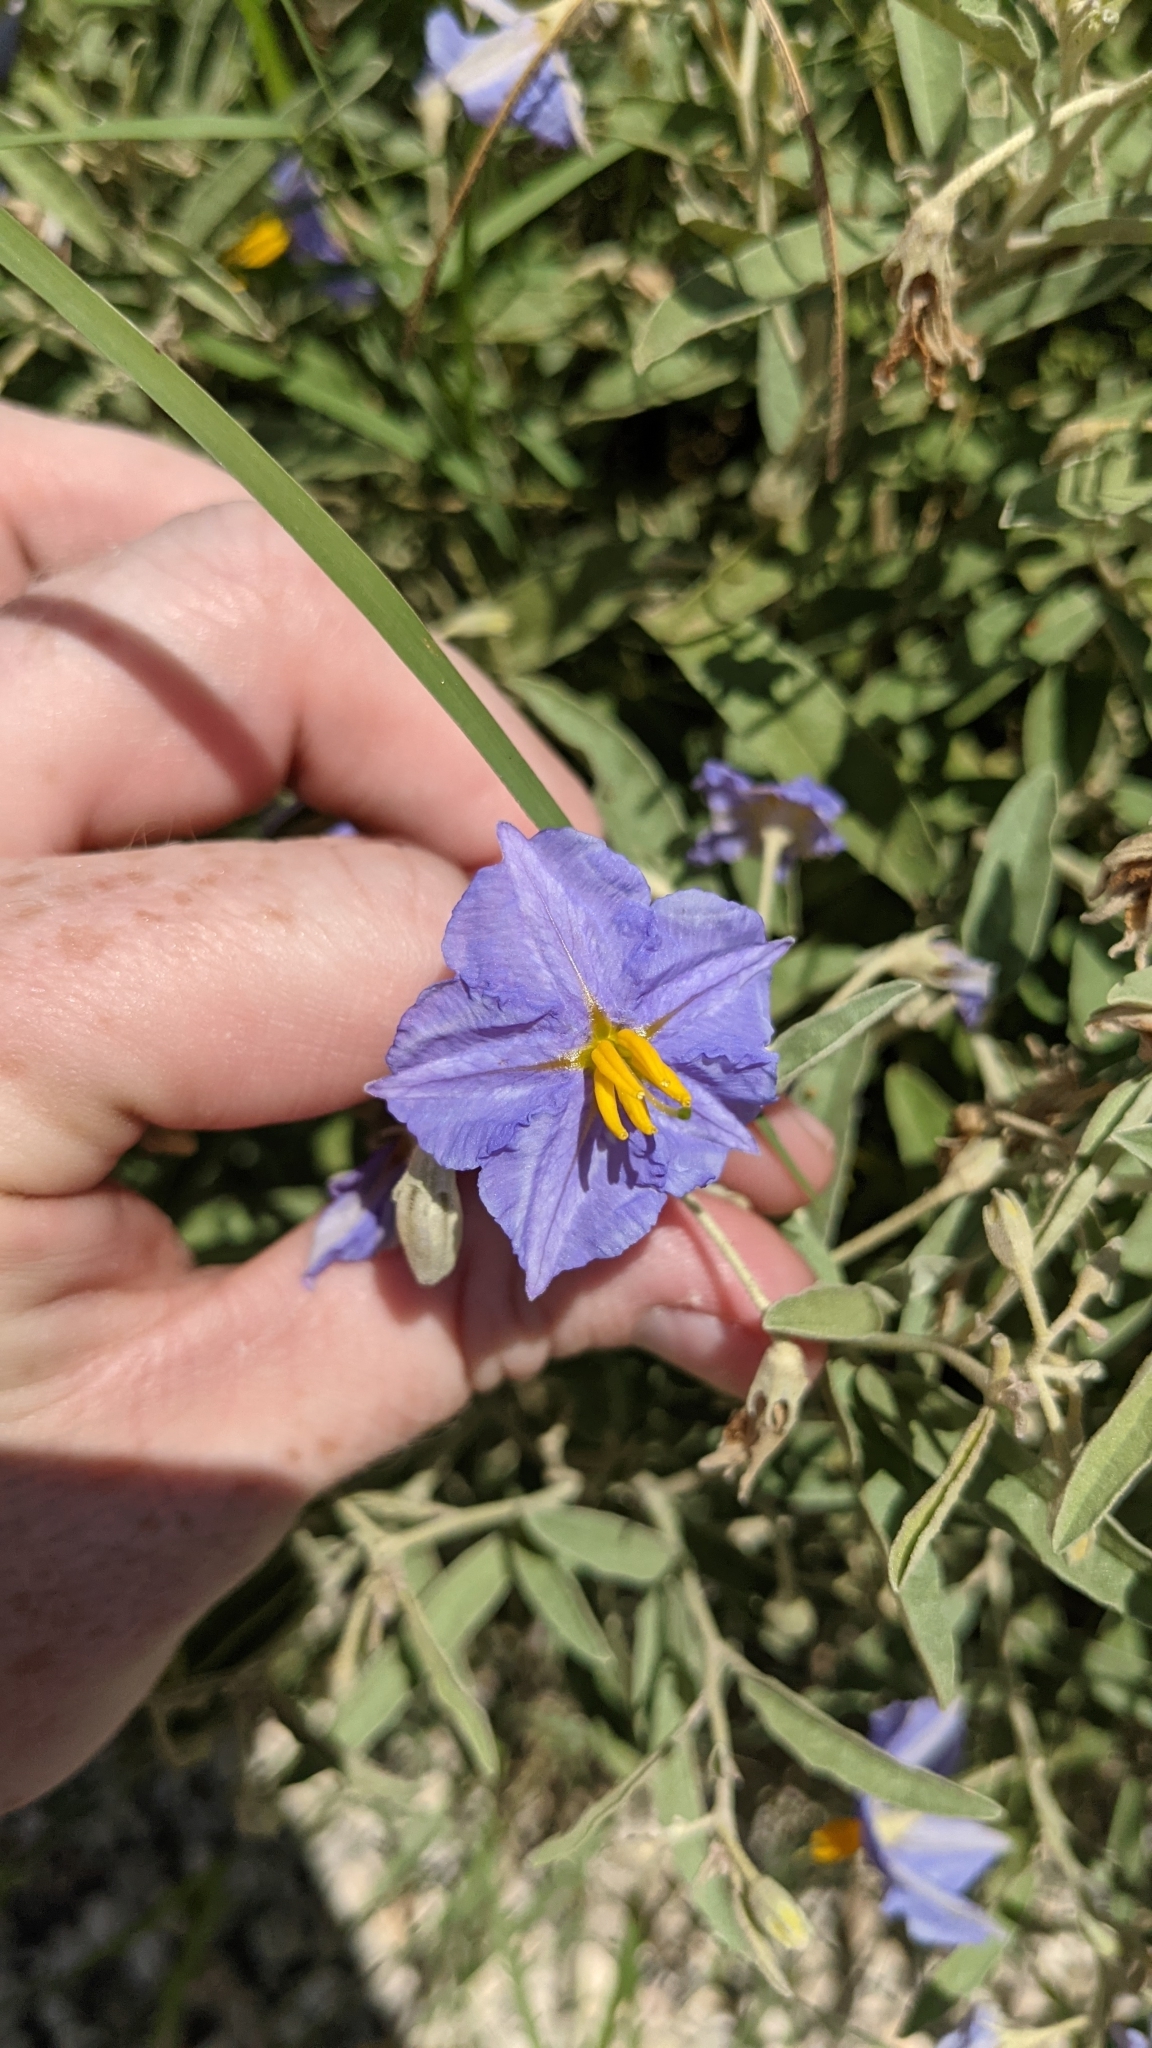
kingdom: Plantae
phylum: Tracheophyta
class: Magnoliopsida
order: Solanales
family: Solanaceae
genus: Solanum
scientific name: Solanum elaeagnifolium
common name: Silverleaf nightshade
